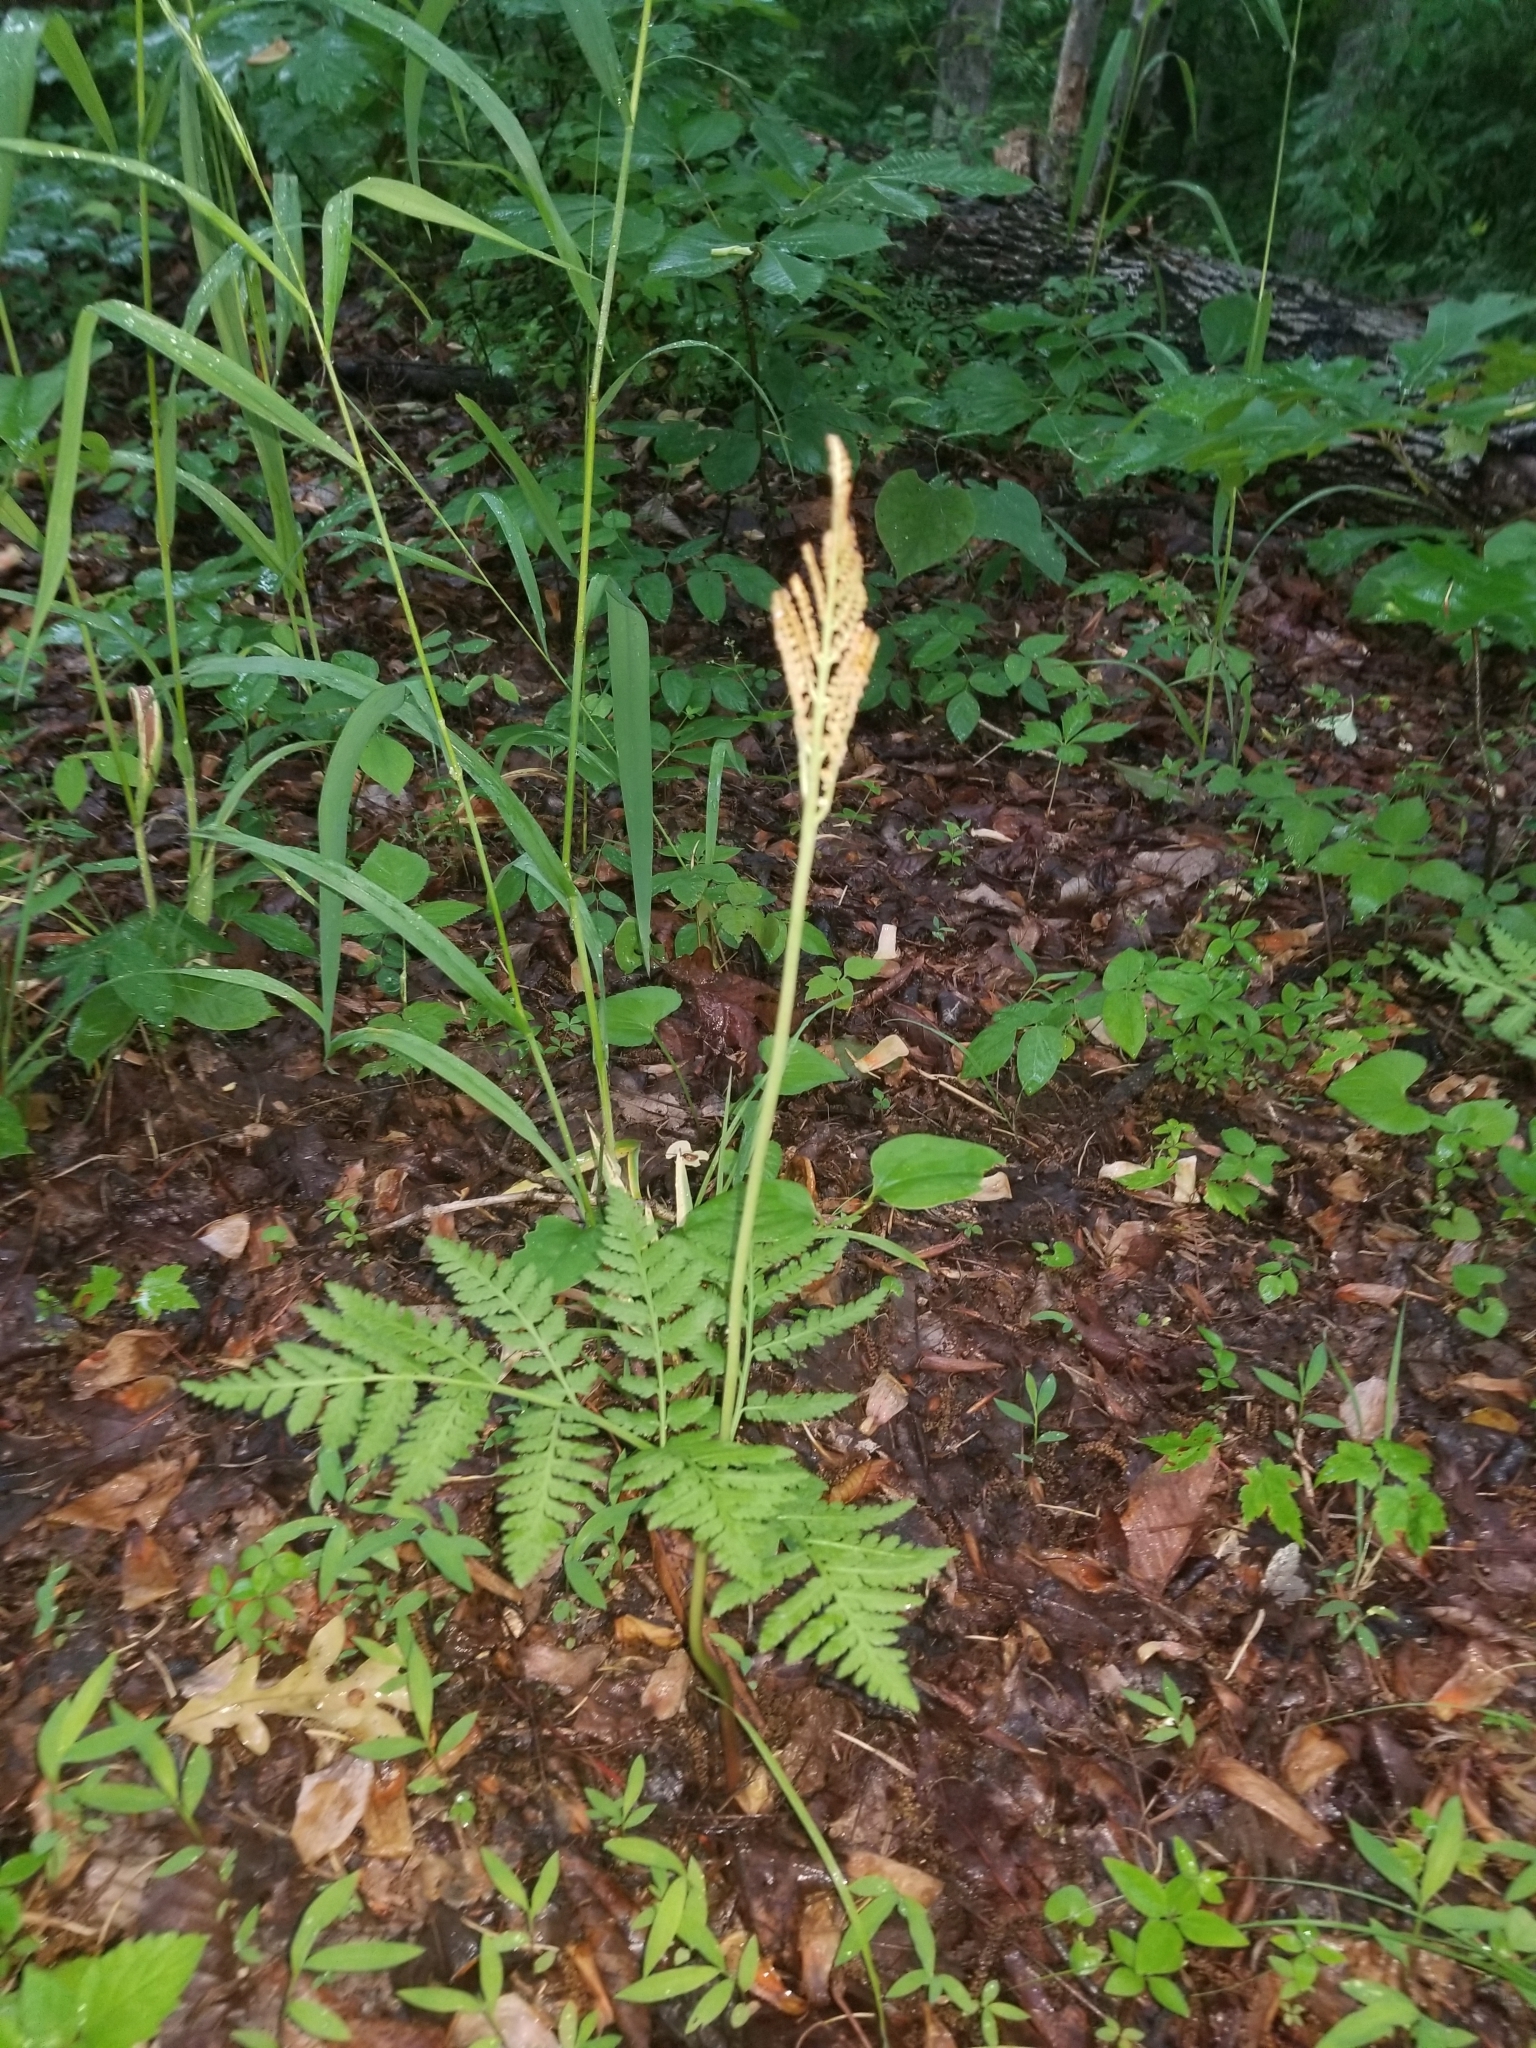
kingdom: Plantae
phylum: Tracheophyta
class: Polypodiopsida
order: Ophioglossales
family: Ophioglossaceae
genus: Botrypus
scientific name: Botrypus virginianus
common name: Common grapefern
